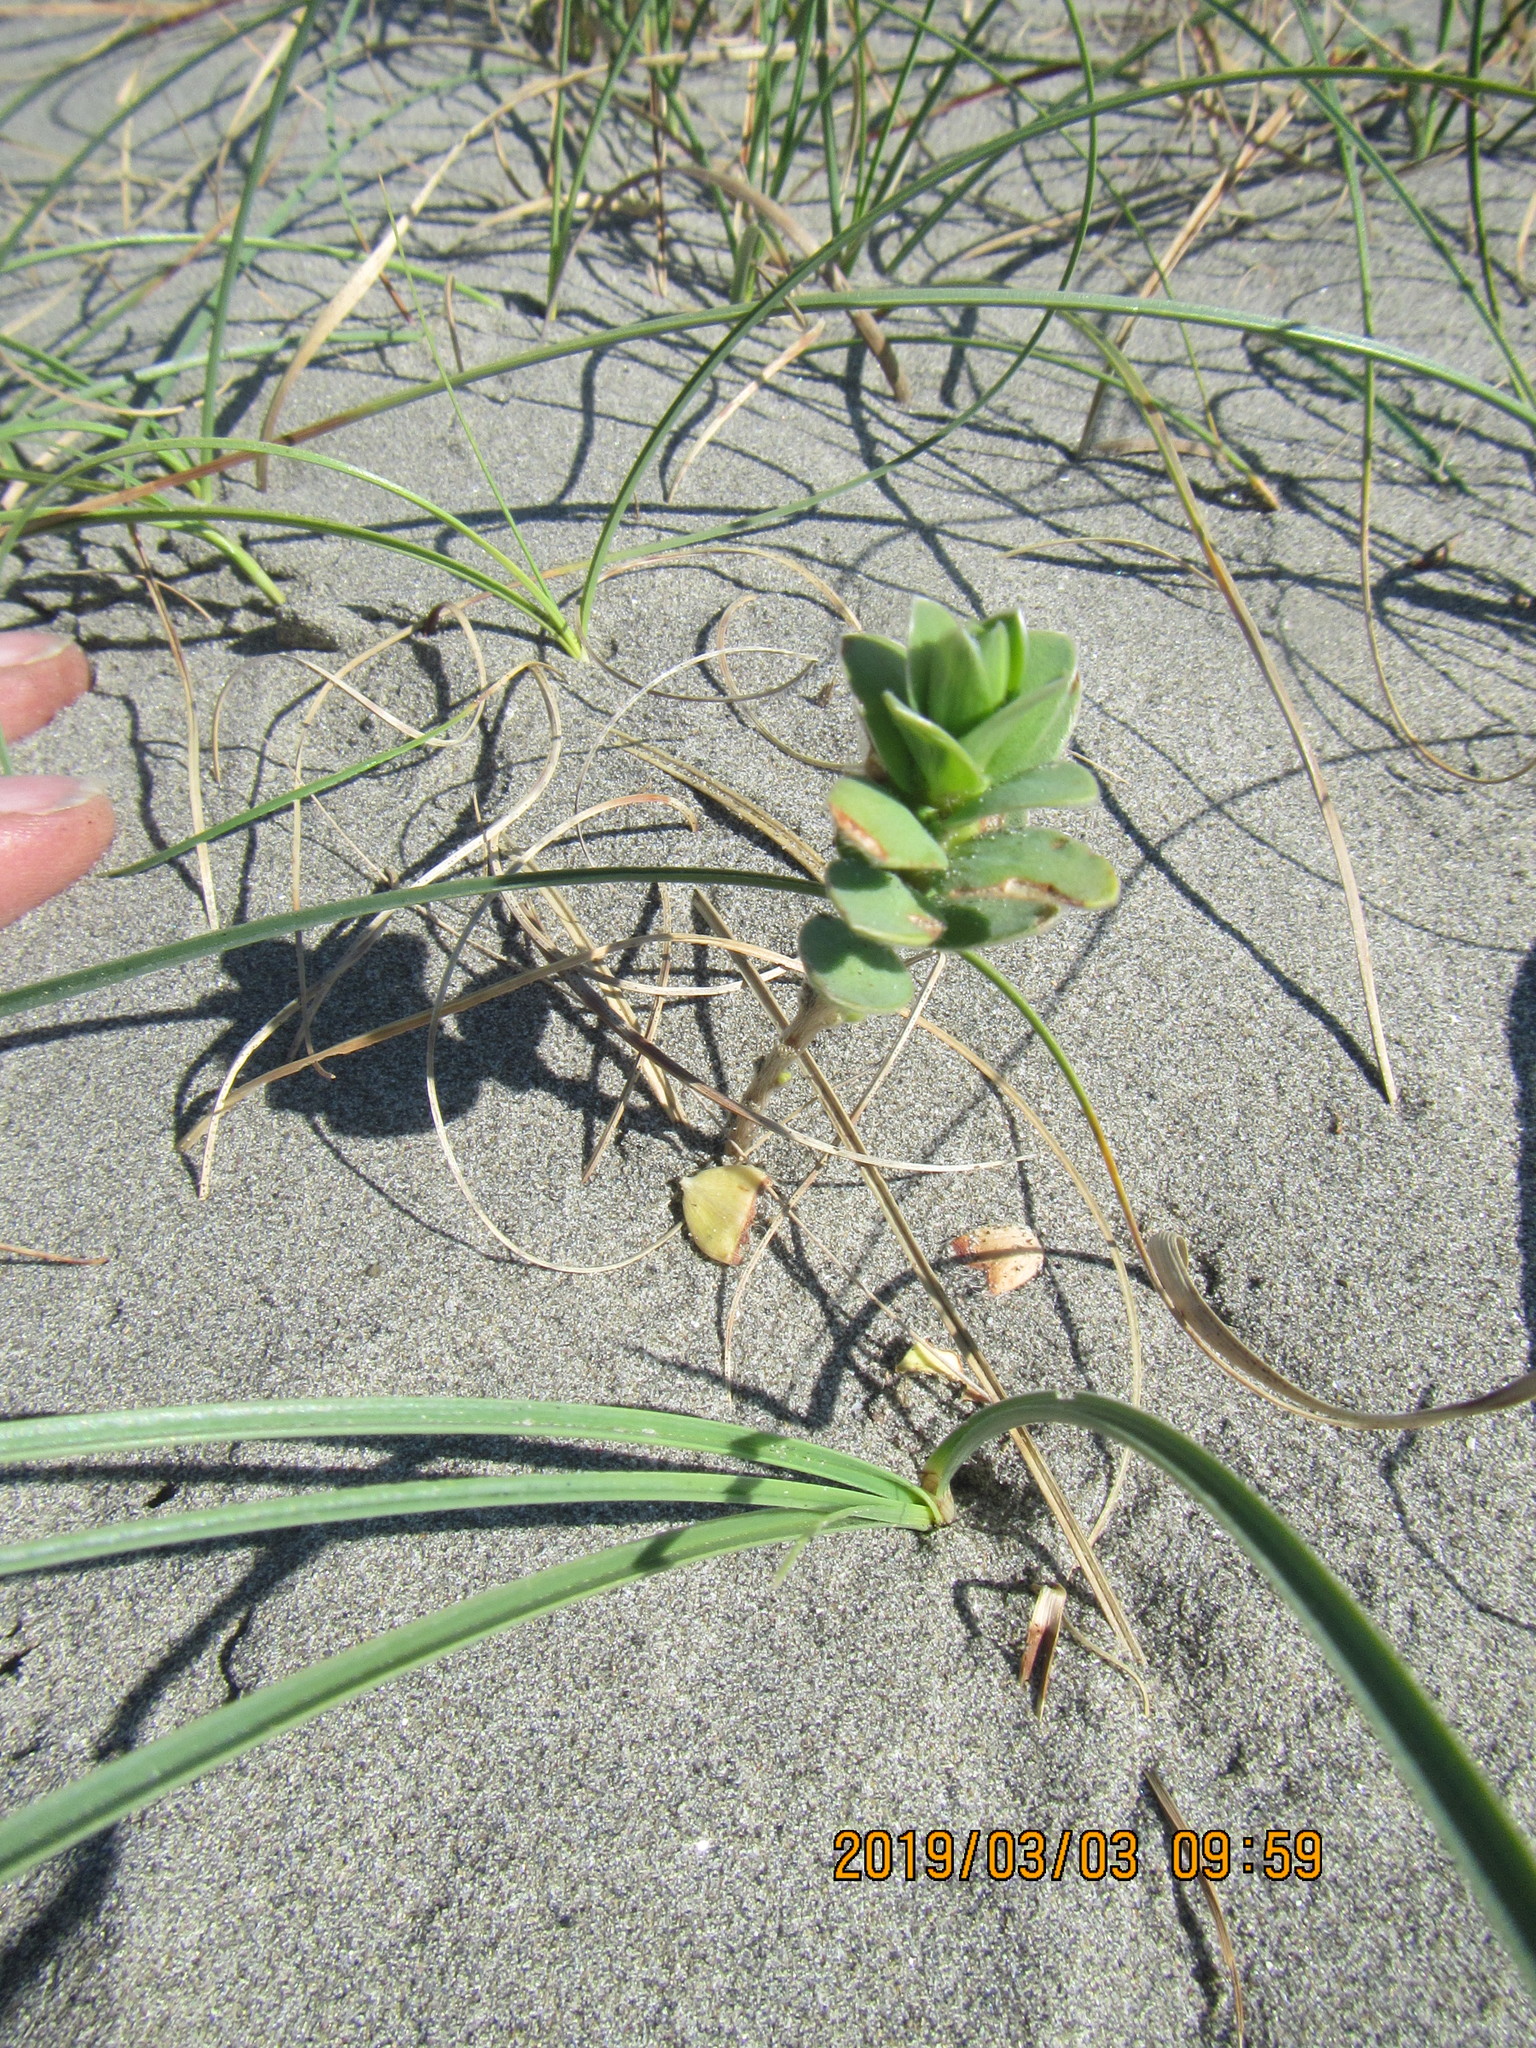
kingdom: Plantae
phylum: Tracheophyta
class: Magnoliopsida
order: Malvales
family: Thymelaeaceae
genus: Pimelea
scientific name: Pimelea villosa
